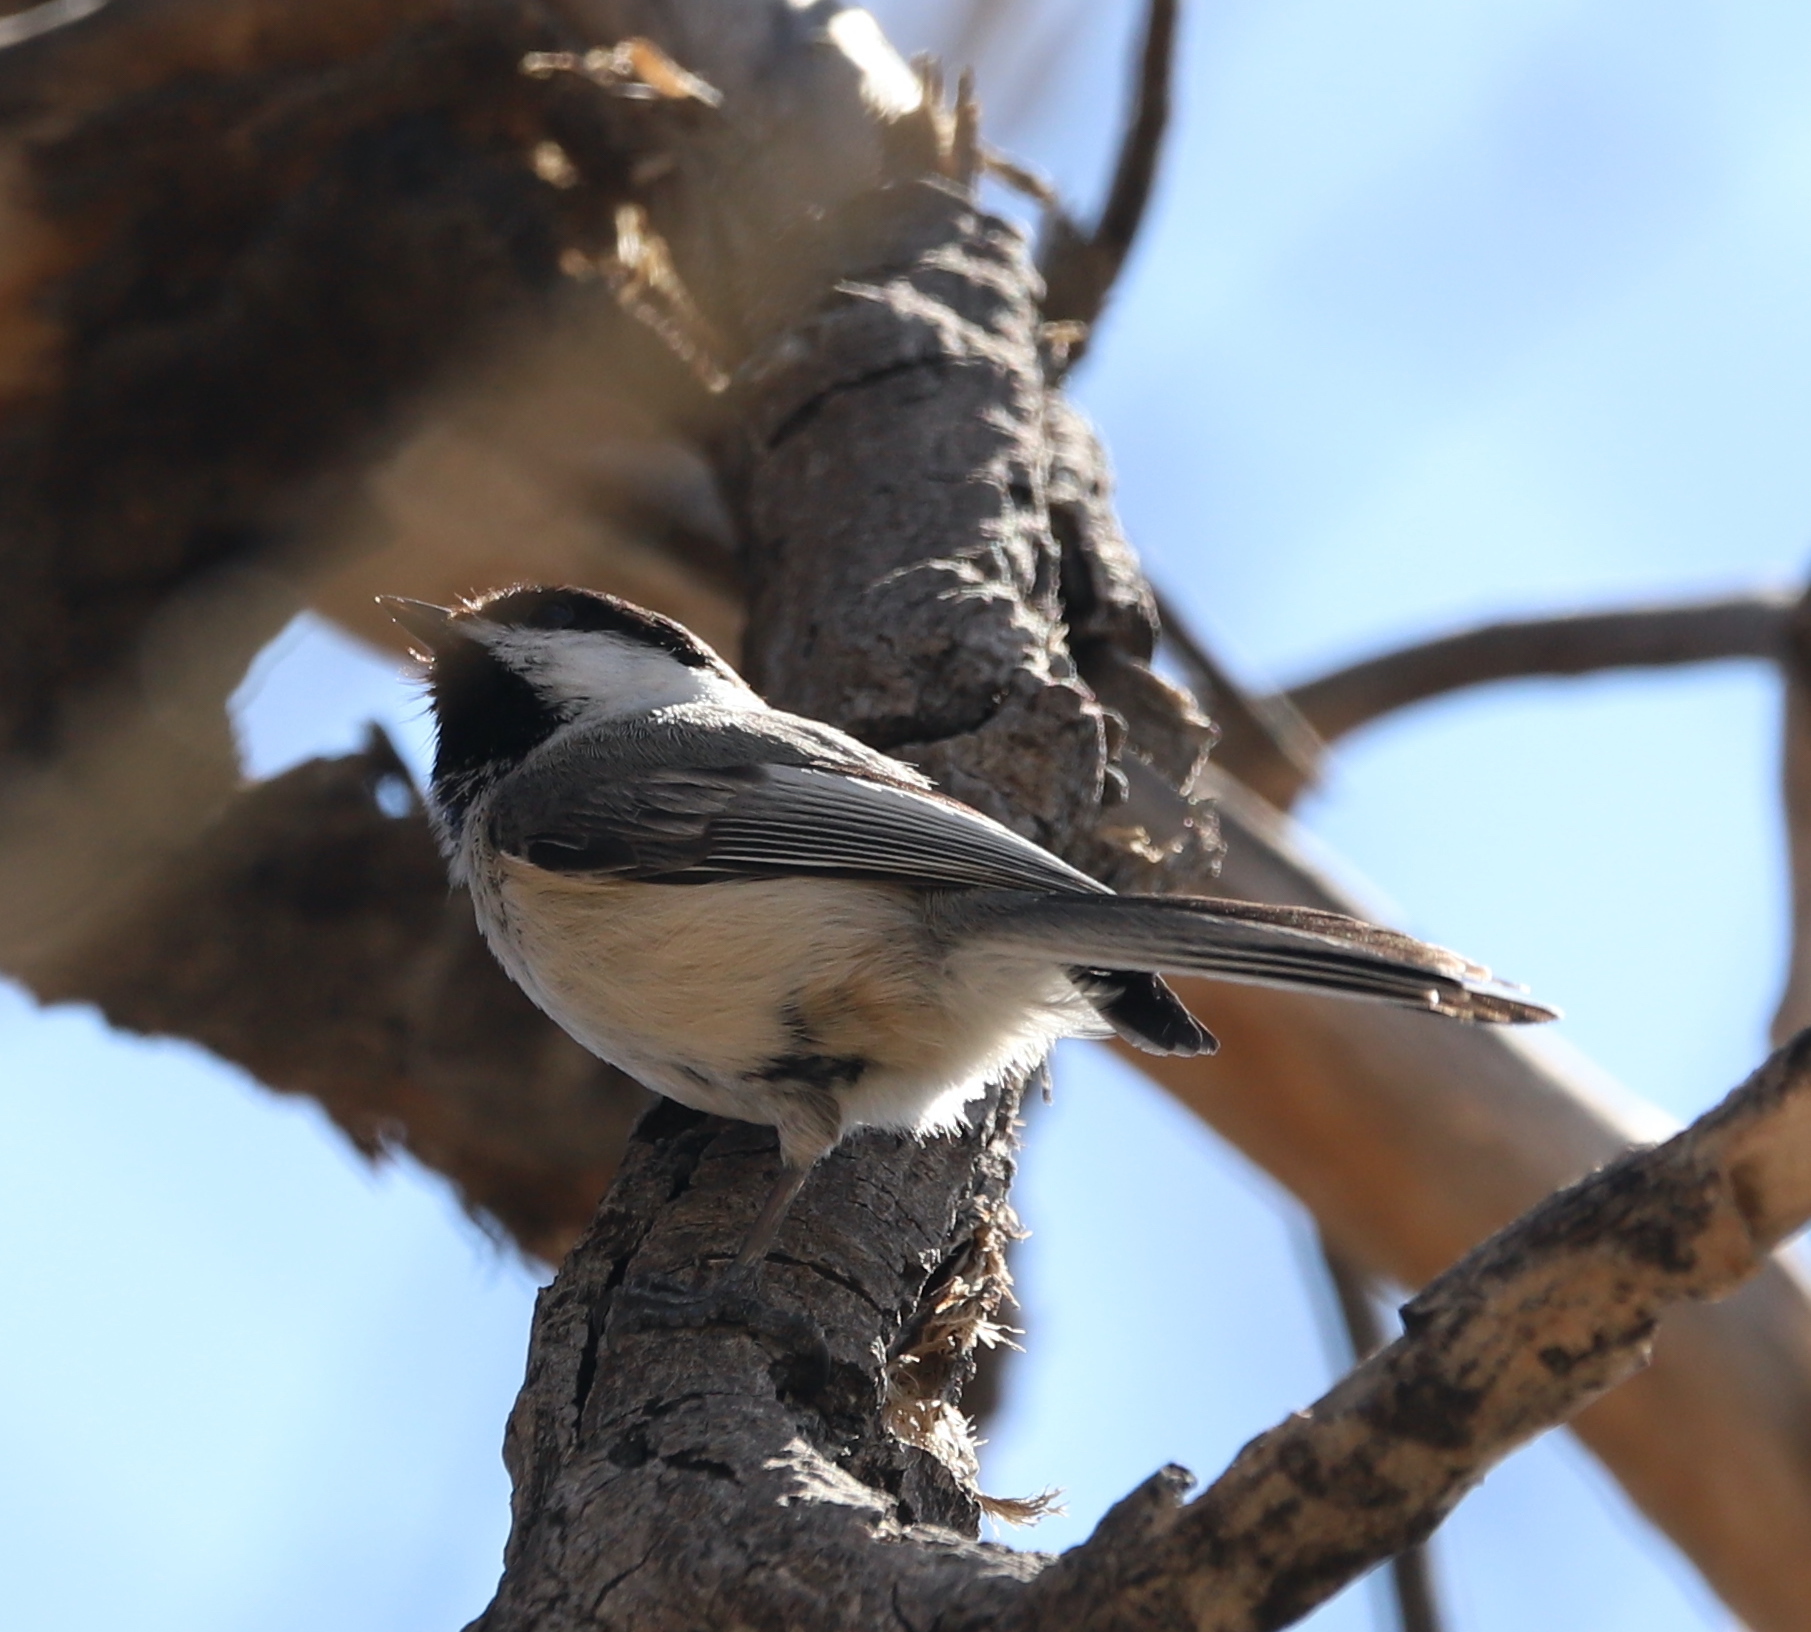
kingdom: Animalia
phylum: Chordata
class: Aves
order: Passeriformes
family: Paridae
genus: Poecile
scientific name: Poecile atricapillus
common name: Black-capped chickadee
